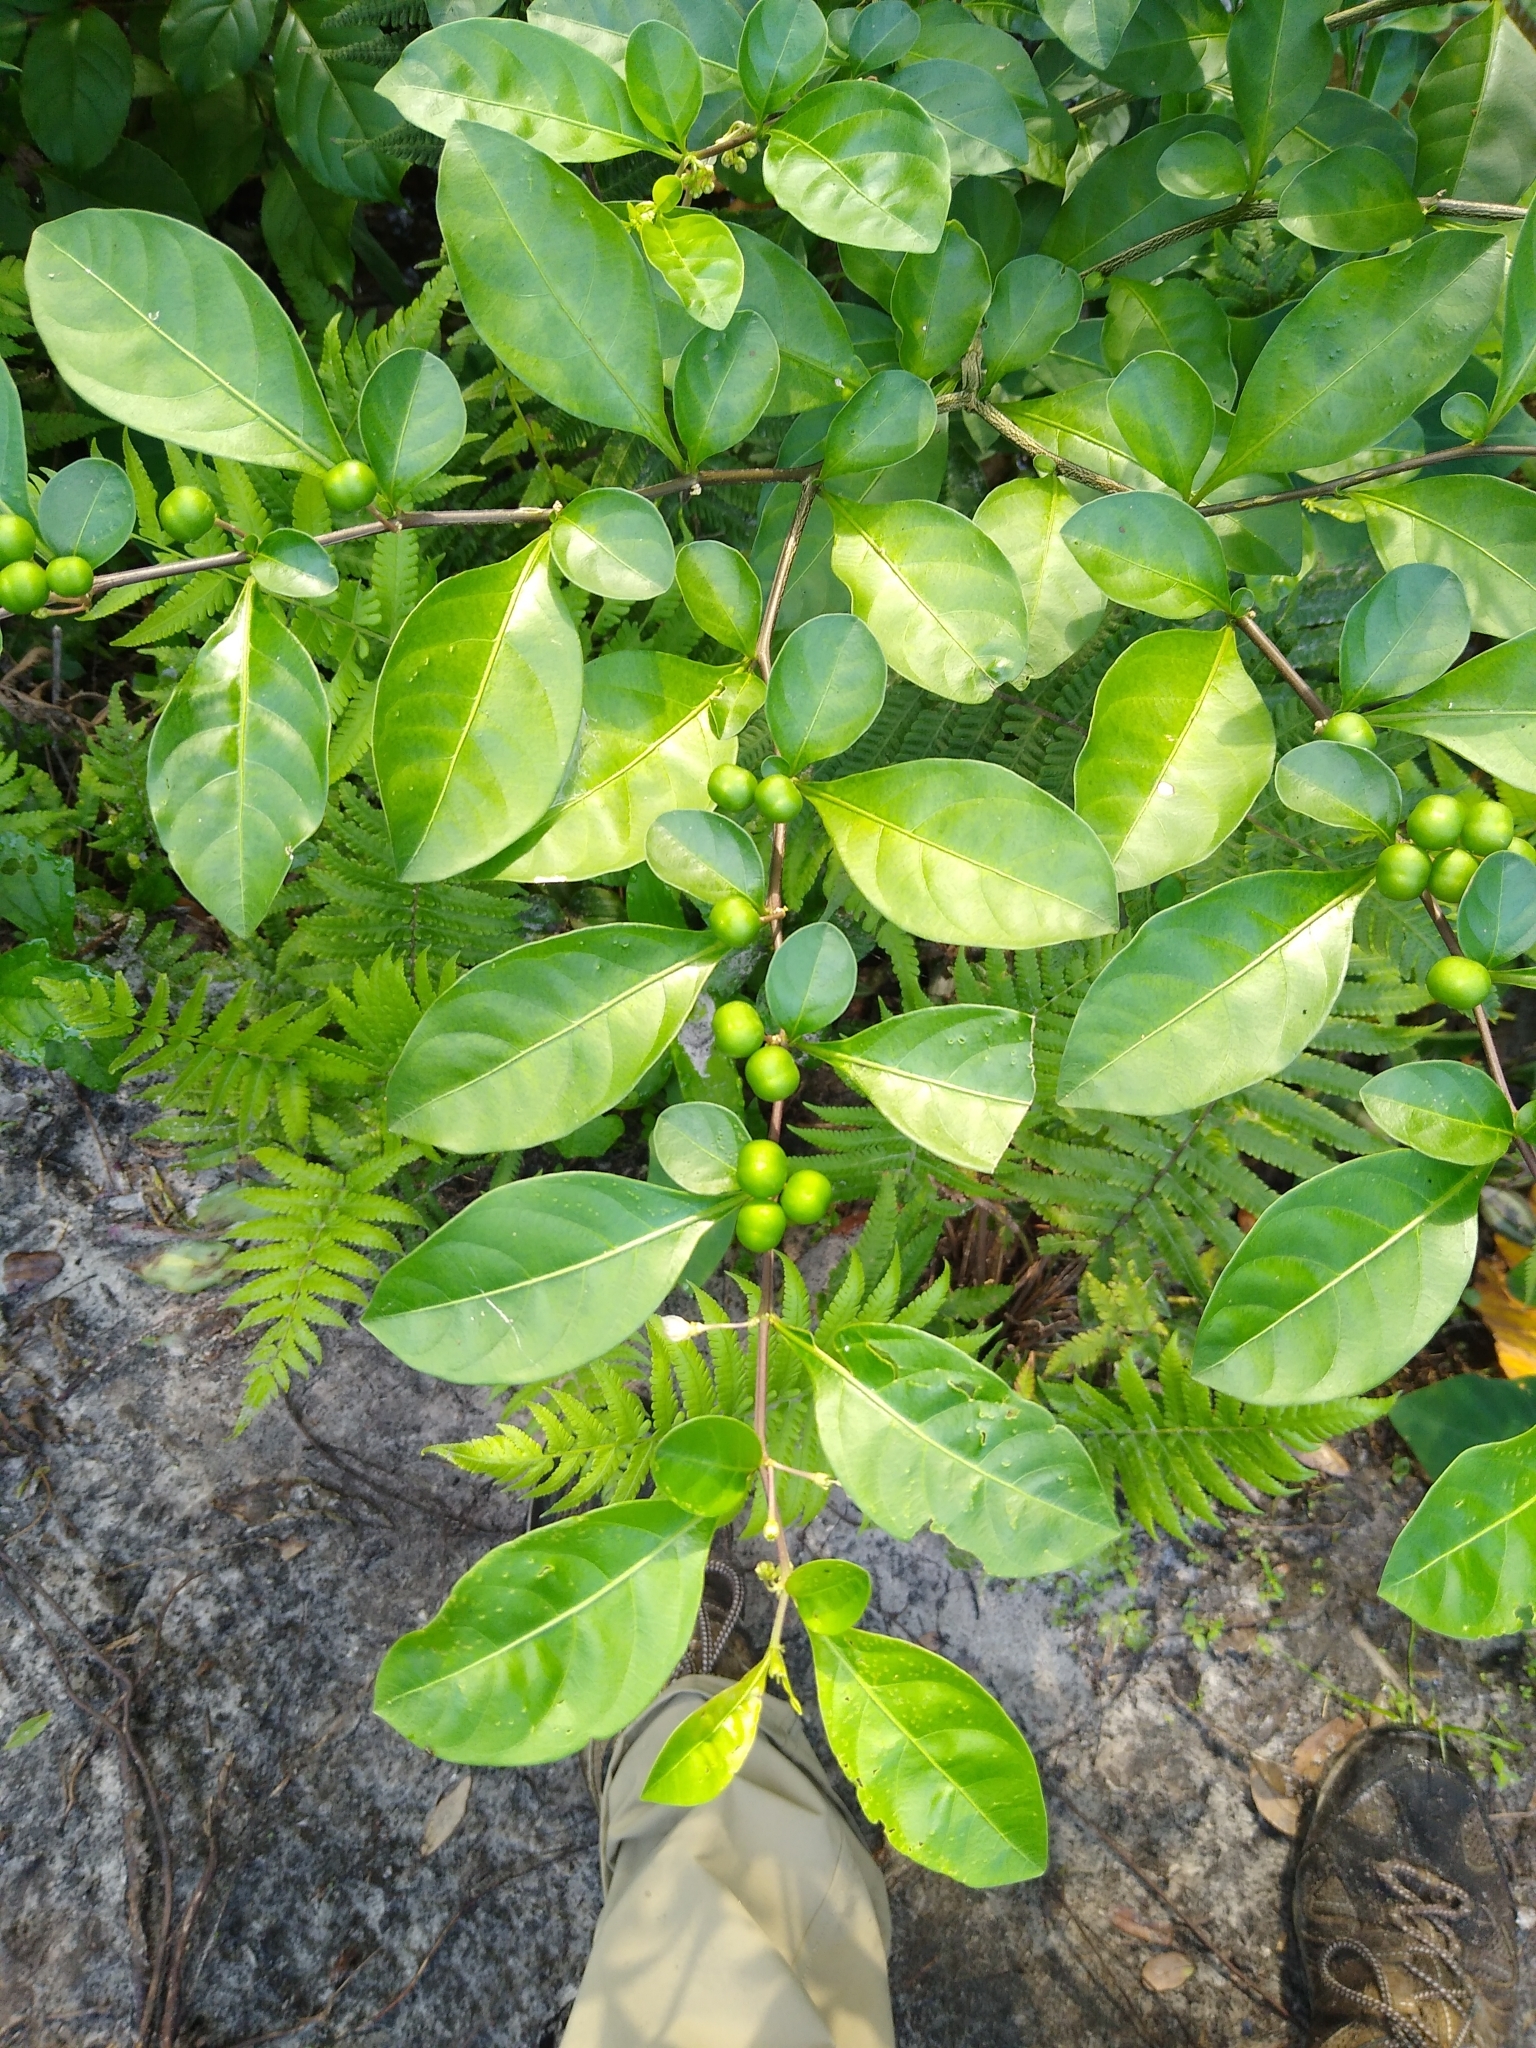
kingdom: Plantae
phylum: Tracheophyta
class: Magnoliopsida
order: Solanales
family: Solanaceae
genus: Solanum
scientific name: Solanum diphyllum
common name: Twoleaf nightshade
